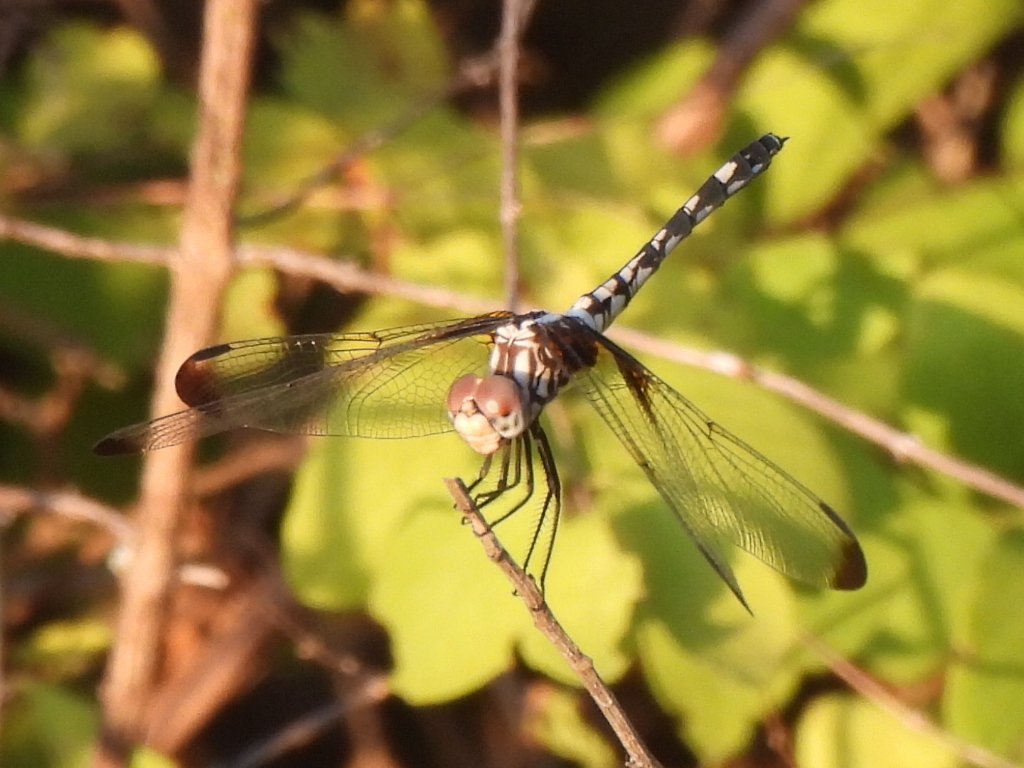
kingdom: Animalia
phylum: Arthropoda
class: Insecta
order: Odonata
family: Libellulidae
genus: Dythemis
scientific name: Dythemis fugax
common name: Checkered setwing
